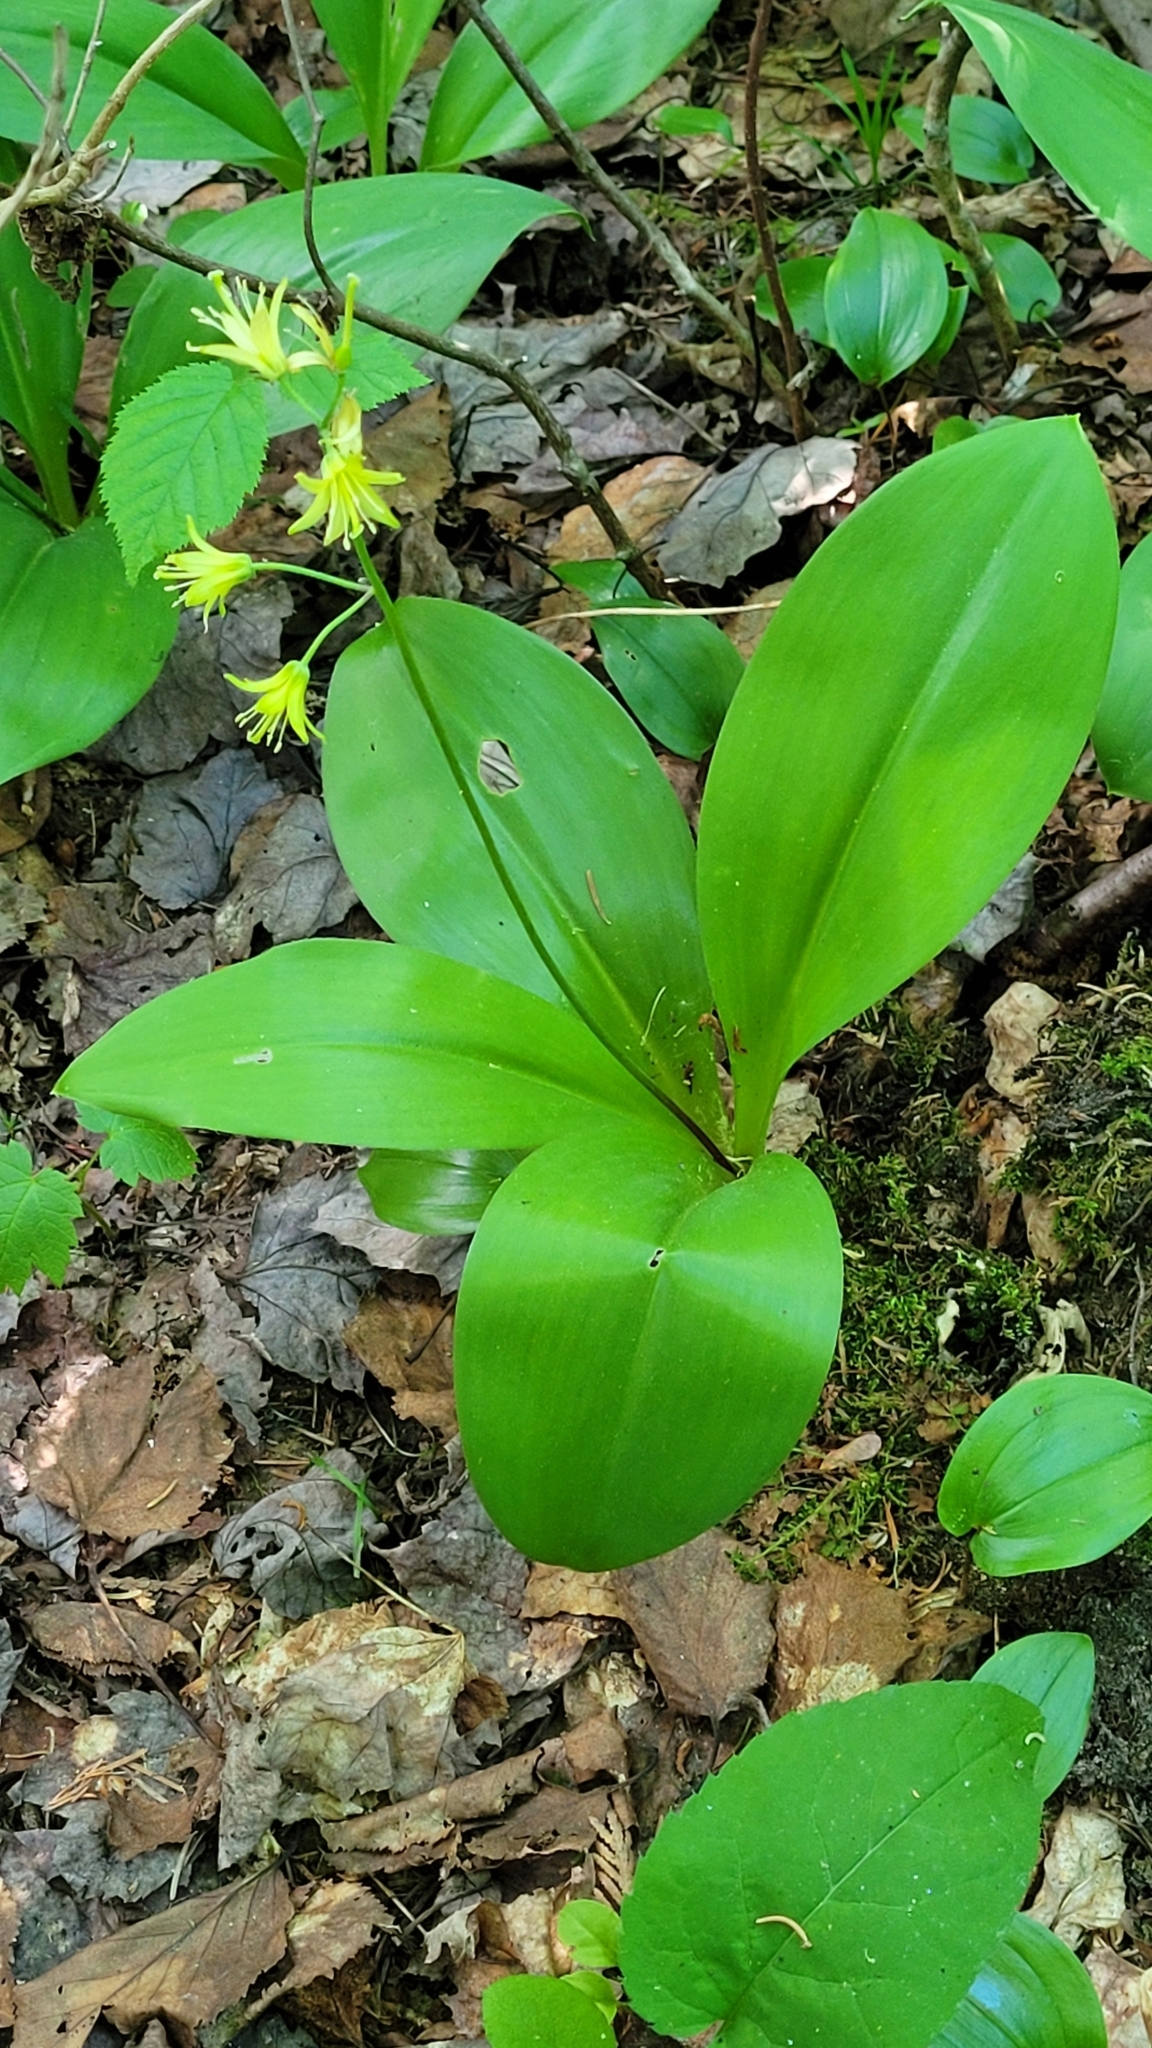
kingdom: Plantae
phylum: Tracheophyta
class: Liliopsida
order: Liliales
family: Liliaceae
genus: Clintonia
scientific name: Clintonia borealis
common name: Yellow clintonia
